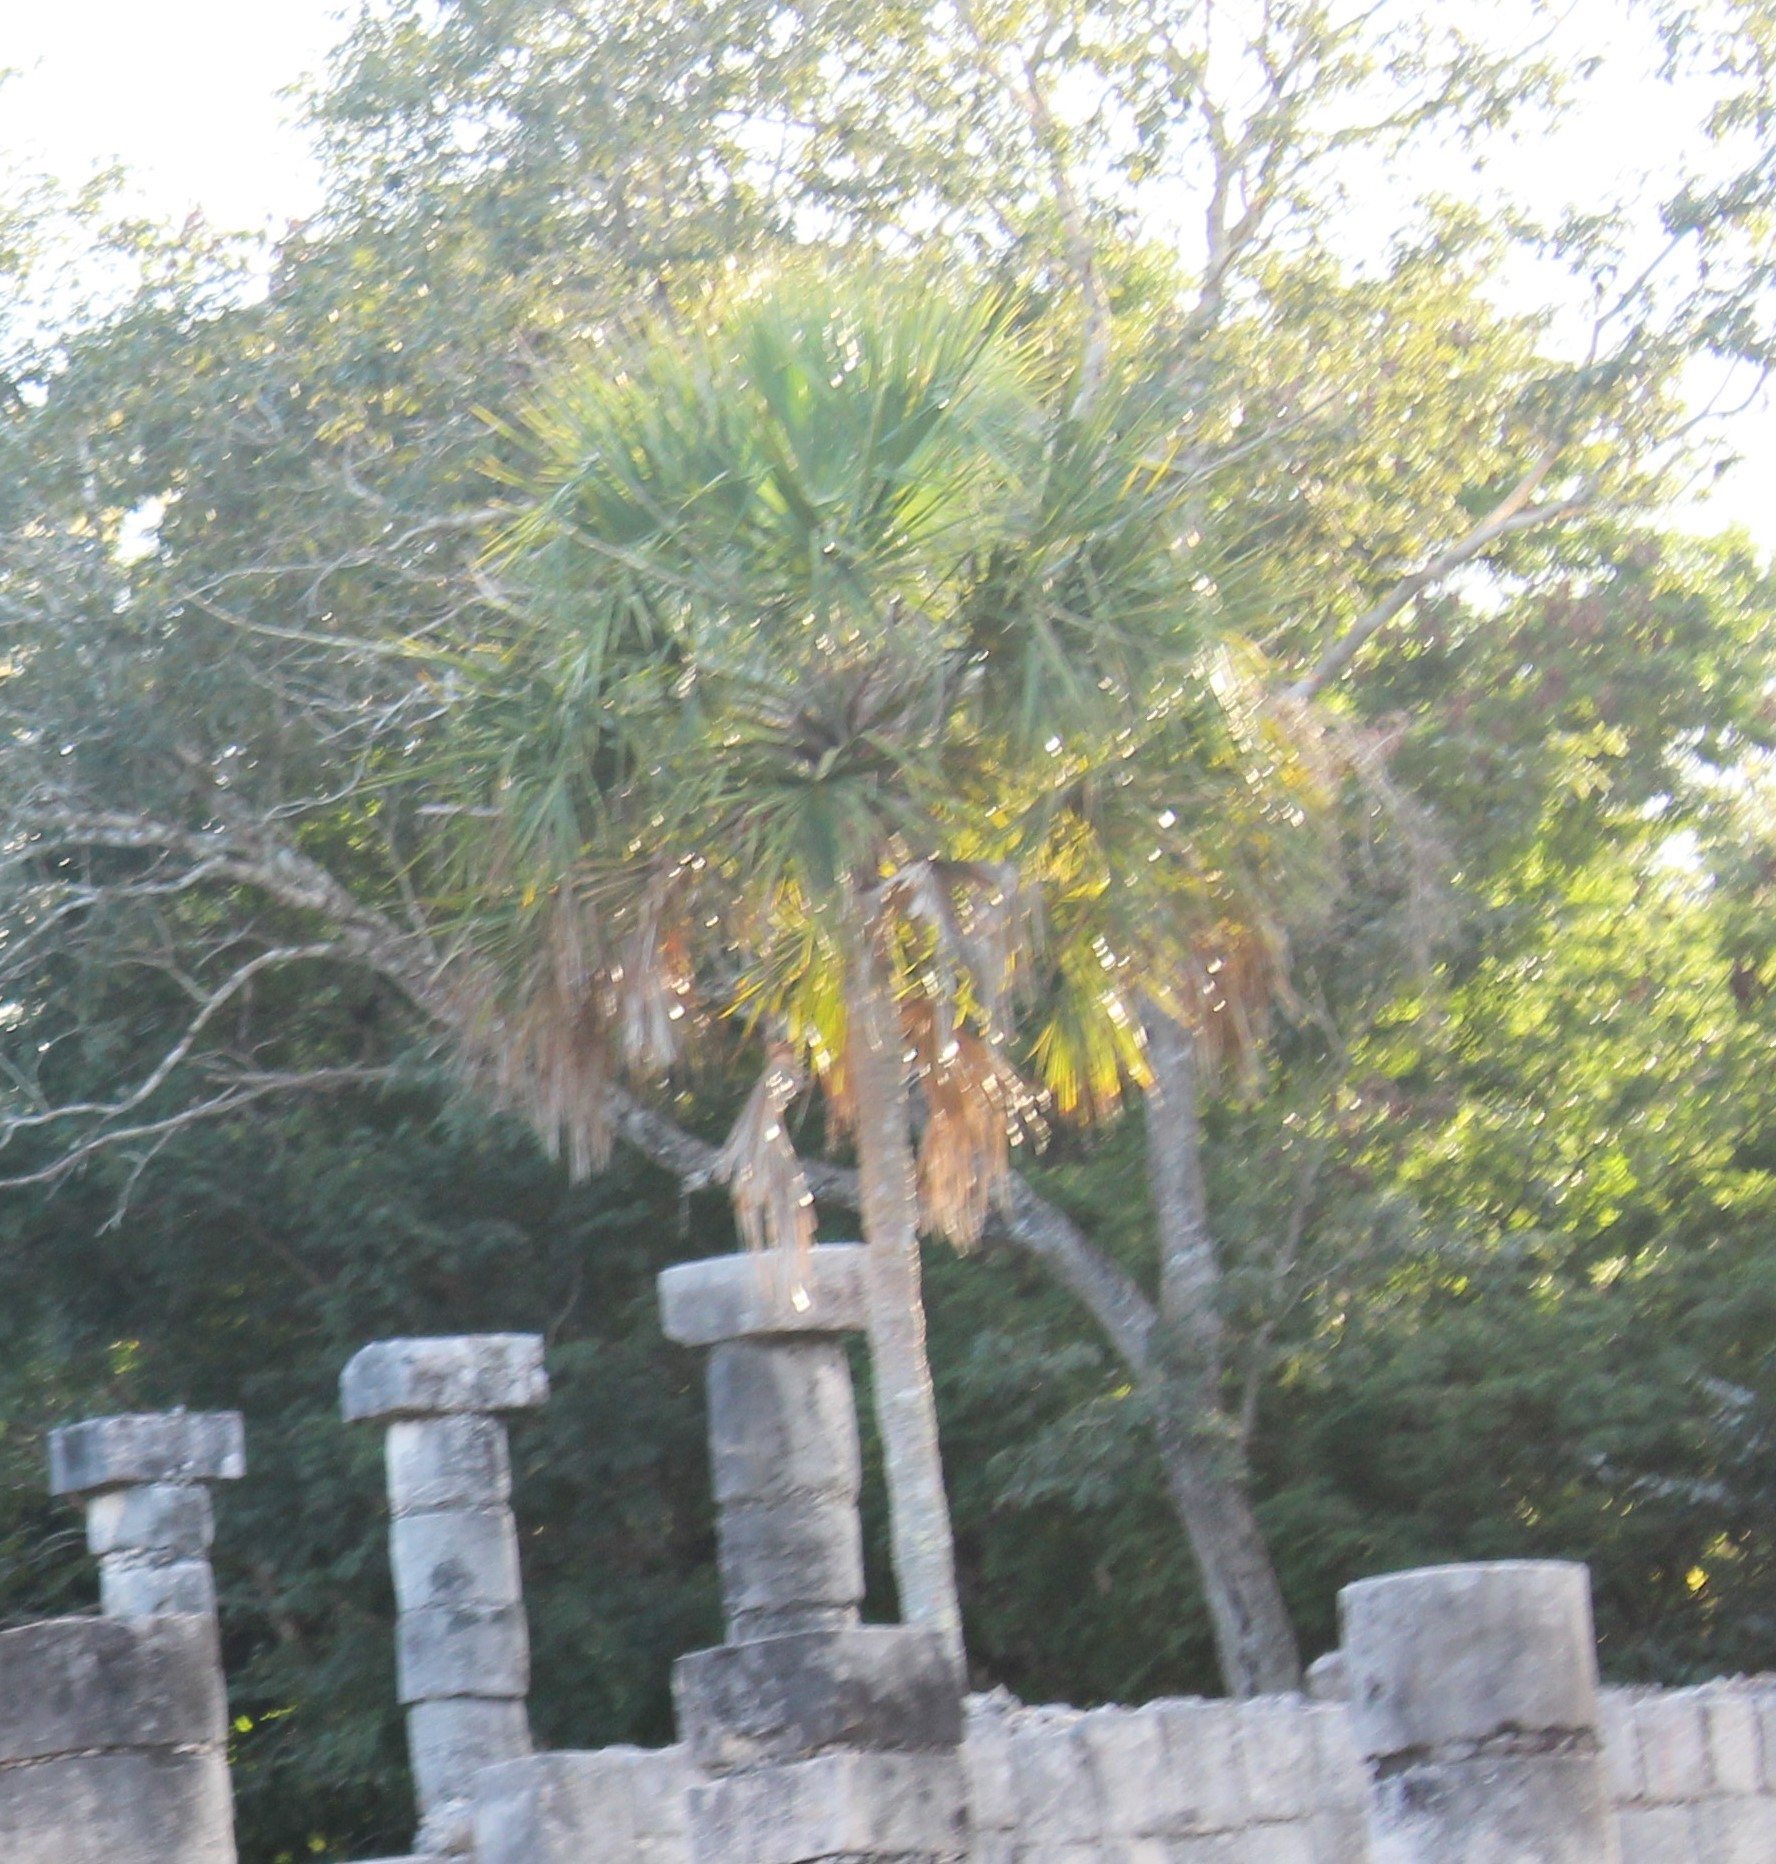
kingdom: Plantae
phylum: Tracheophyta
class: Liliopsida
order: Arecales
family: Arecaceae
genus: Sabal
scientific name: Sabal yapa
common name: Thatch palm
